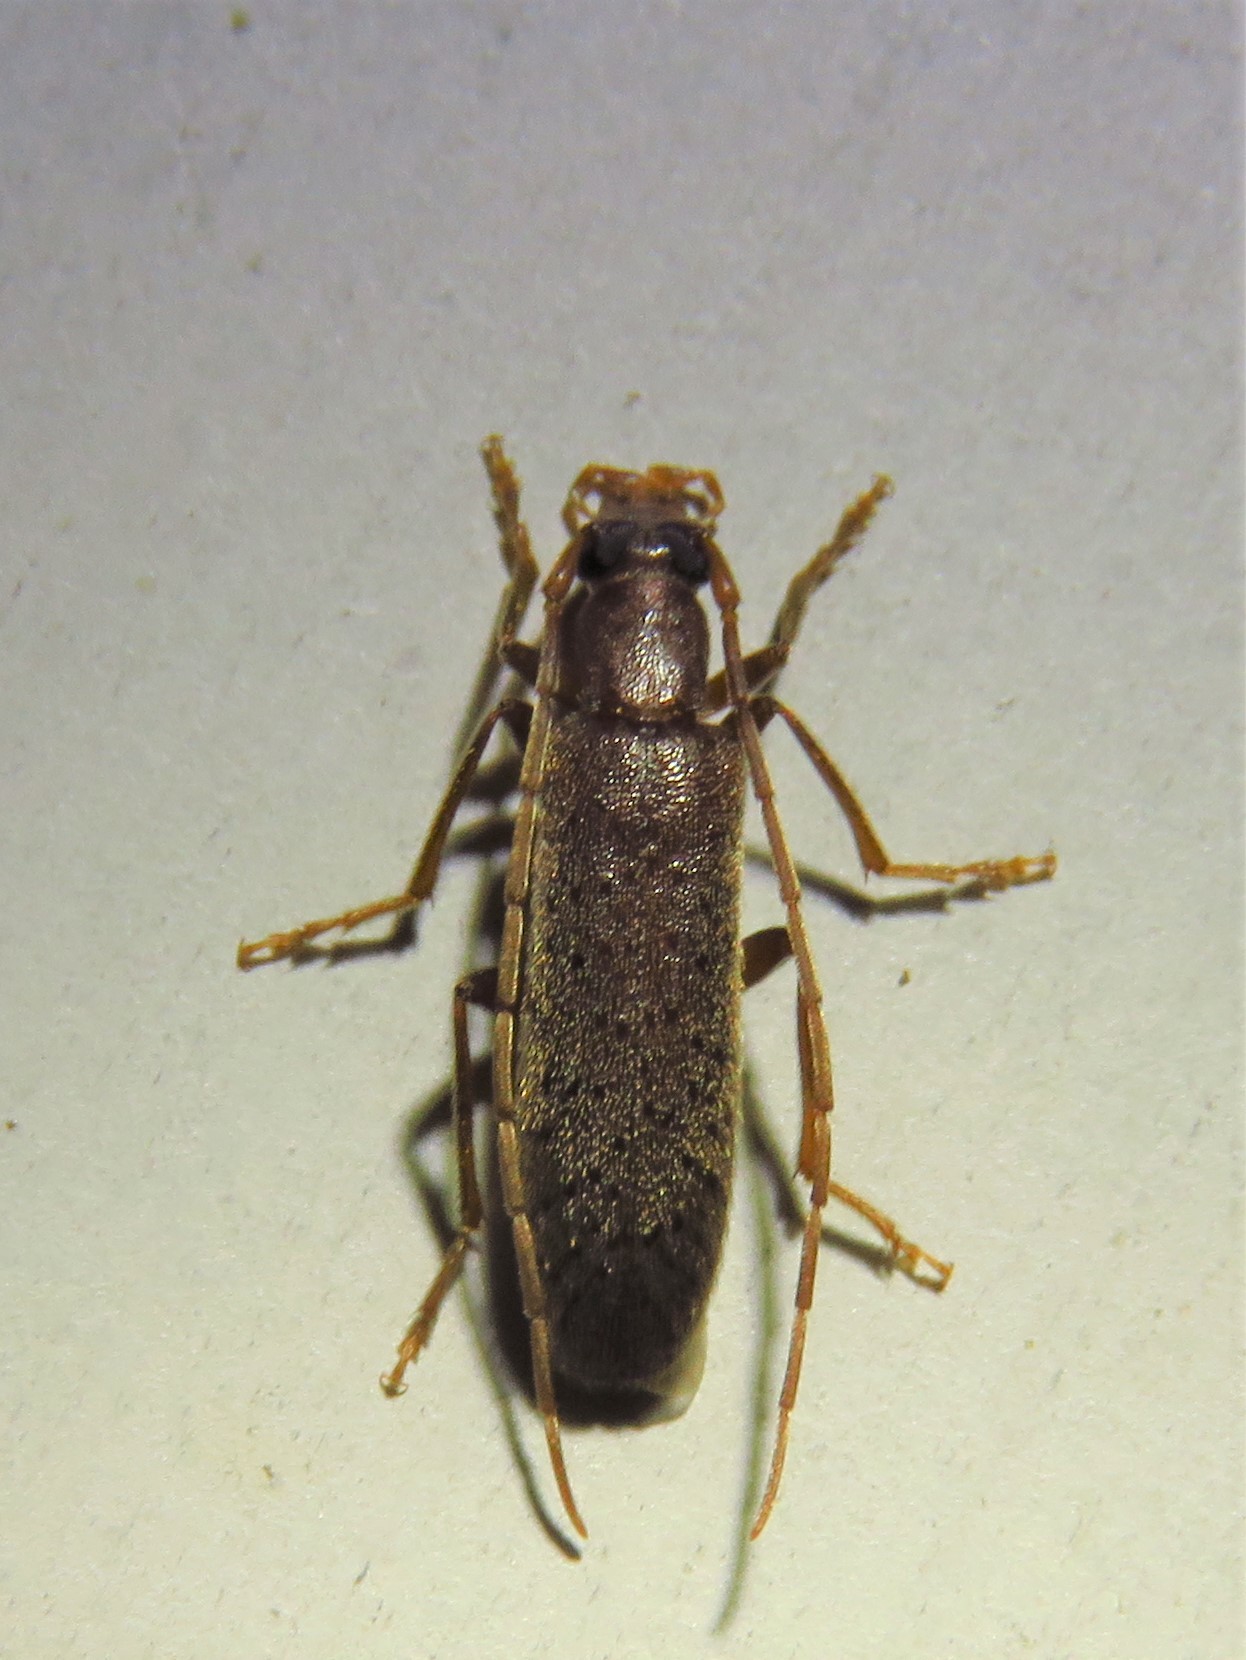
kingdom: Animalia
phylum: Arthropoda
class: Insecta
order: Coleoptera
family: Oedemeridae
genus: Sparedrus
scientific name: Sparedrus aspersus
